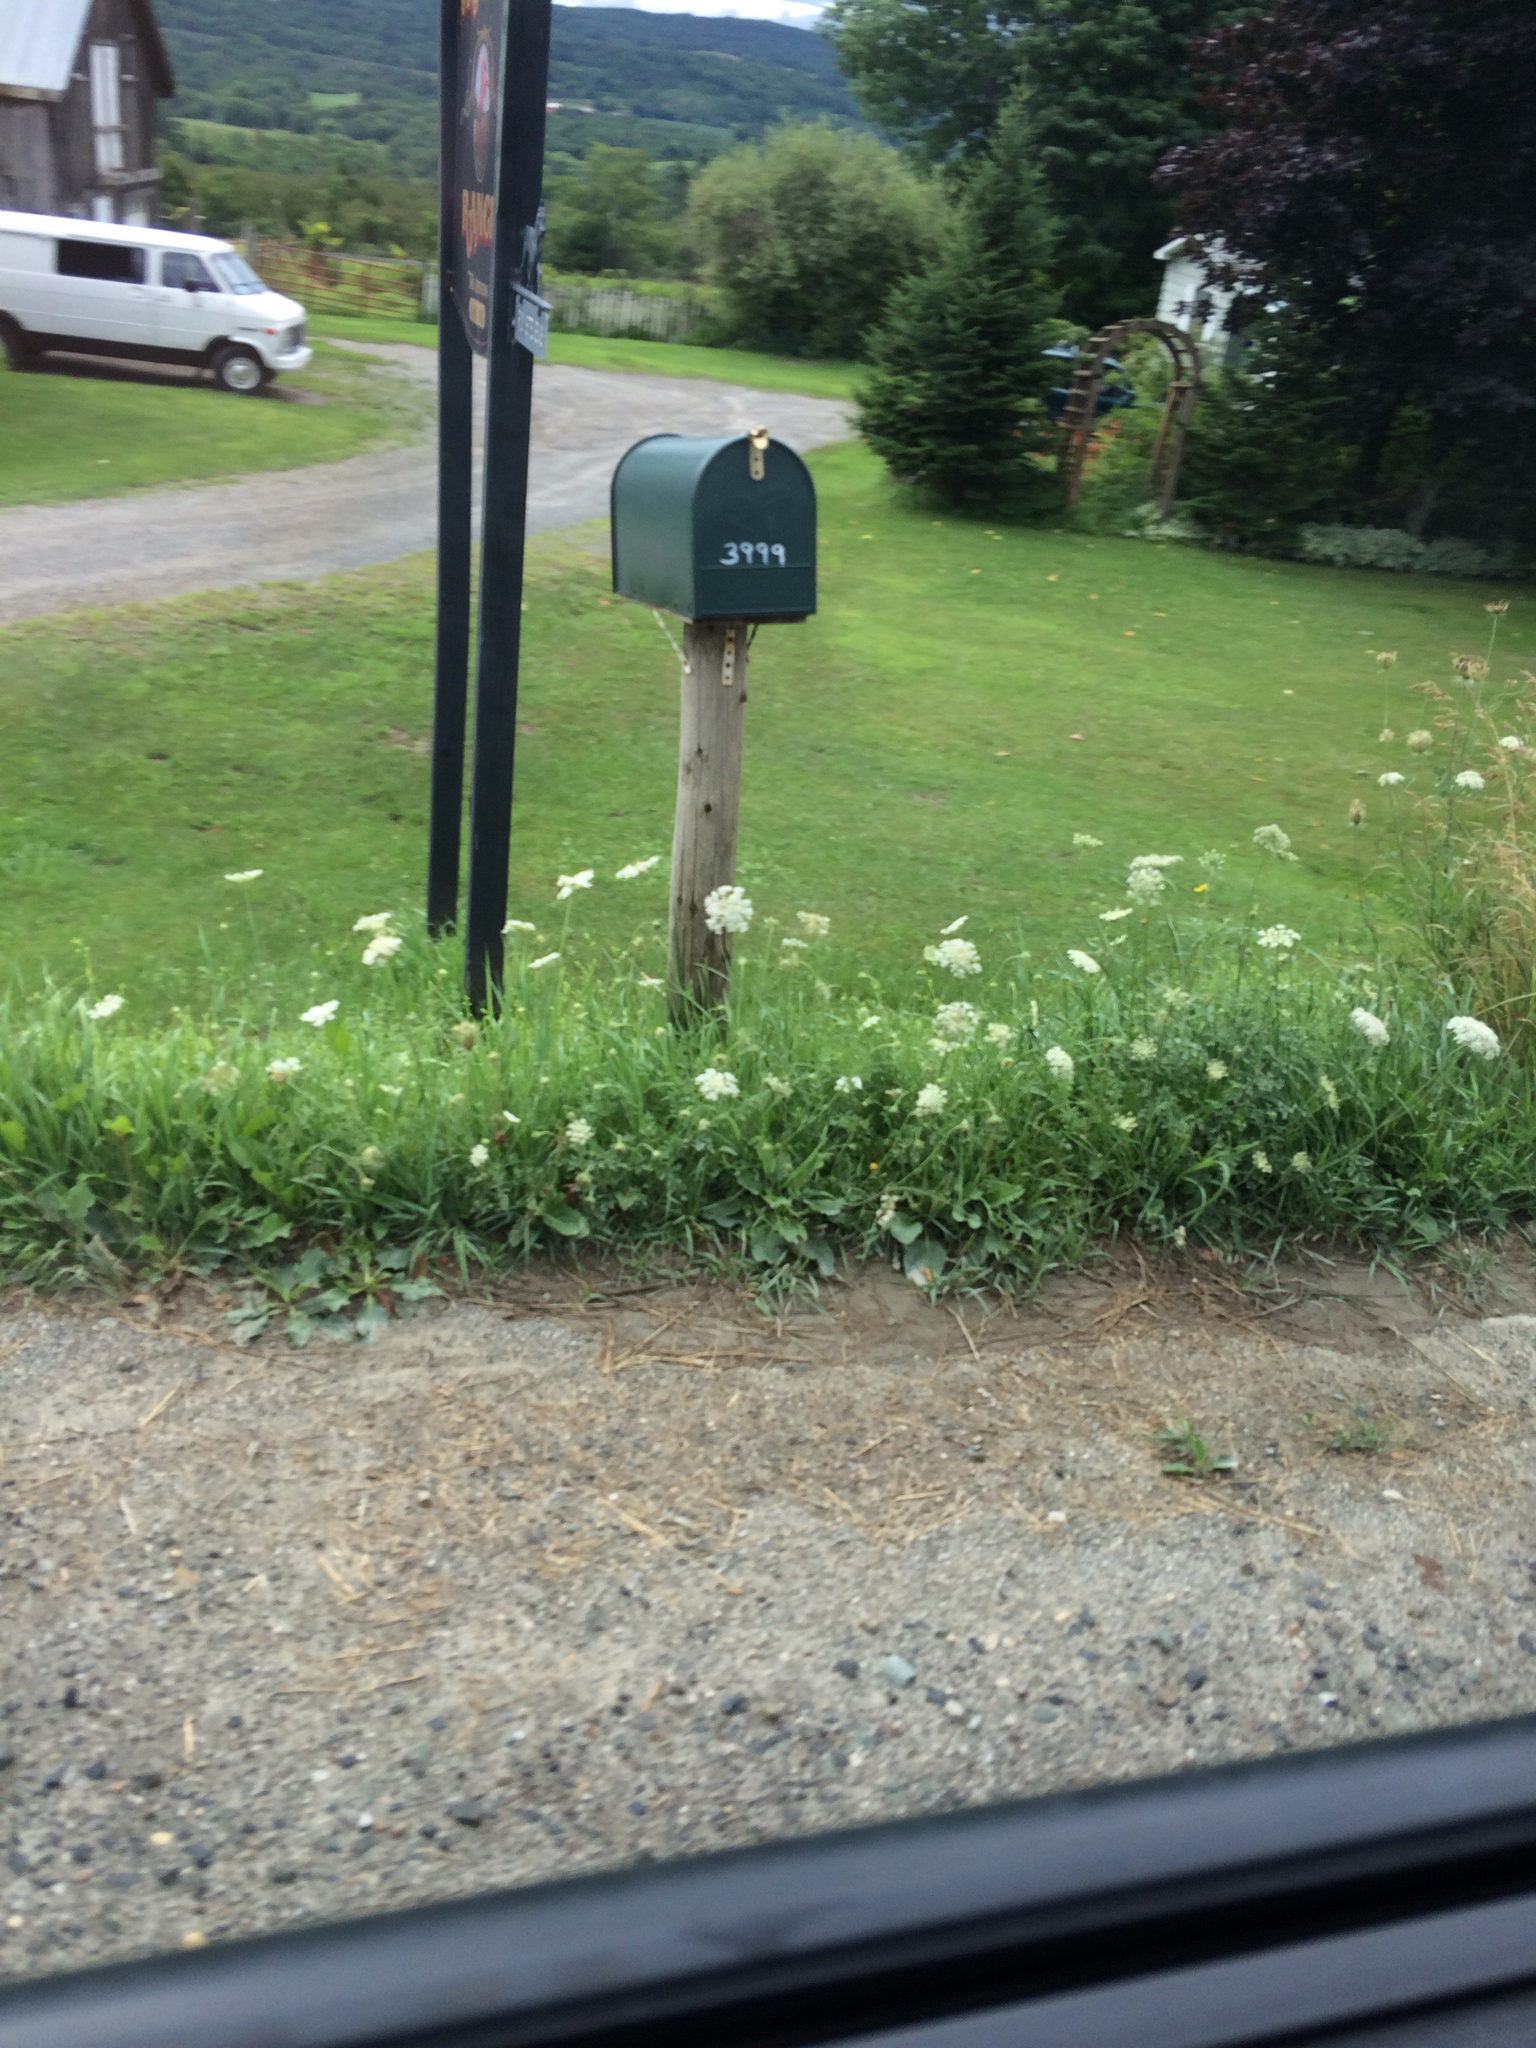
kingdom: Plantae
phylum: Tracheophyta
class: Magnoliopsida
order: Apiales
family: Apiaceae
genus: Daucus
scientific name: Daucus carota
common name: Wild carrot
